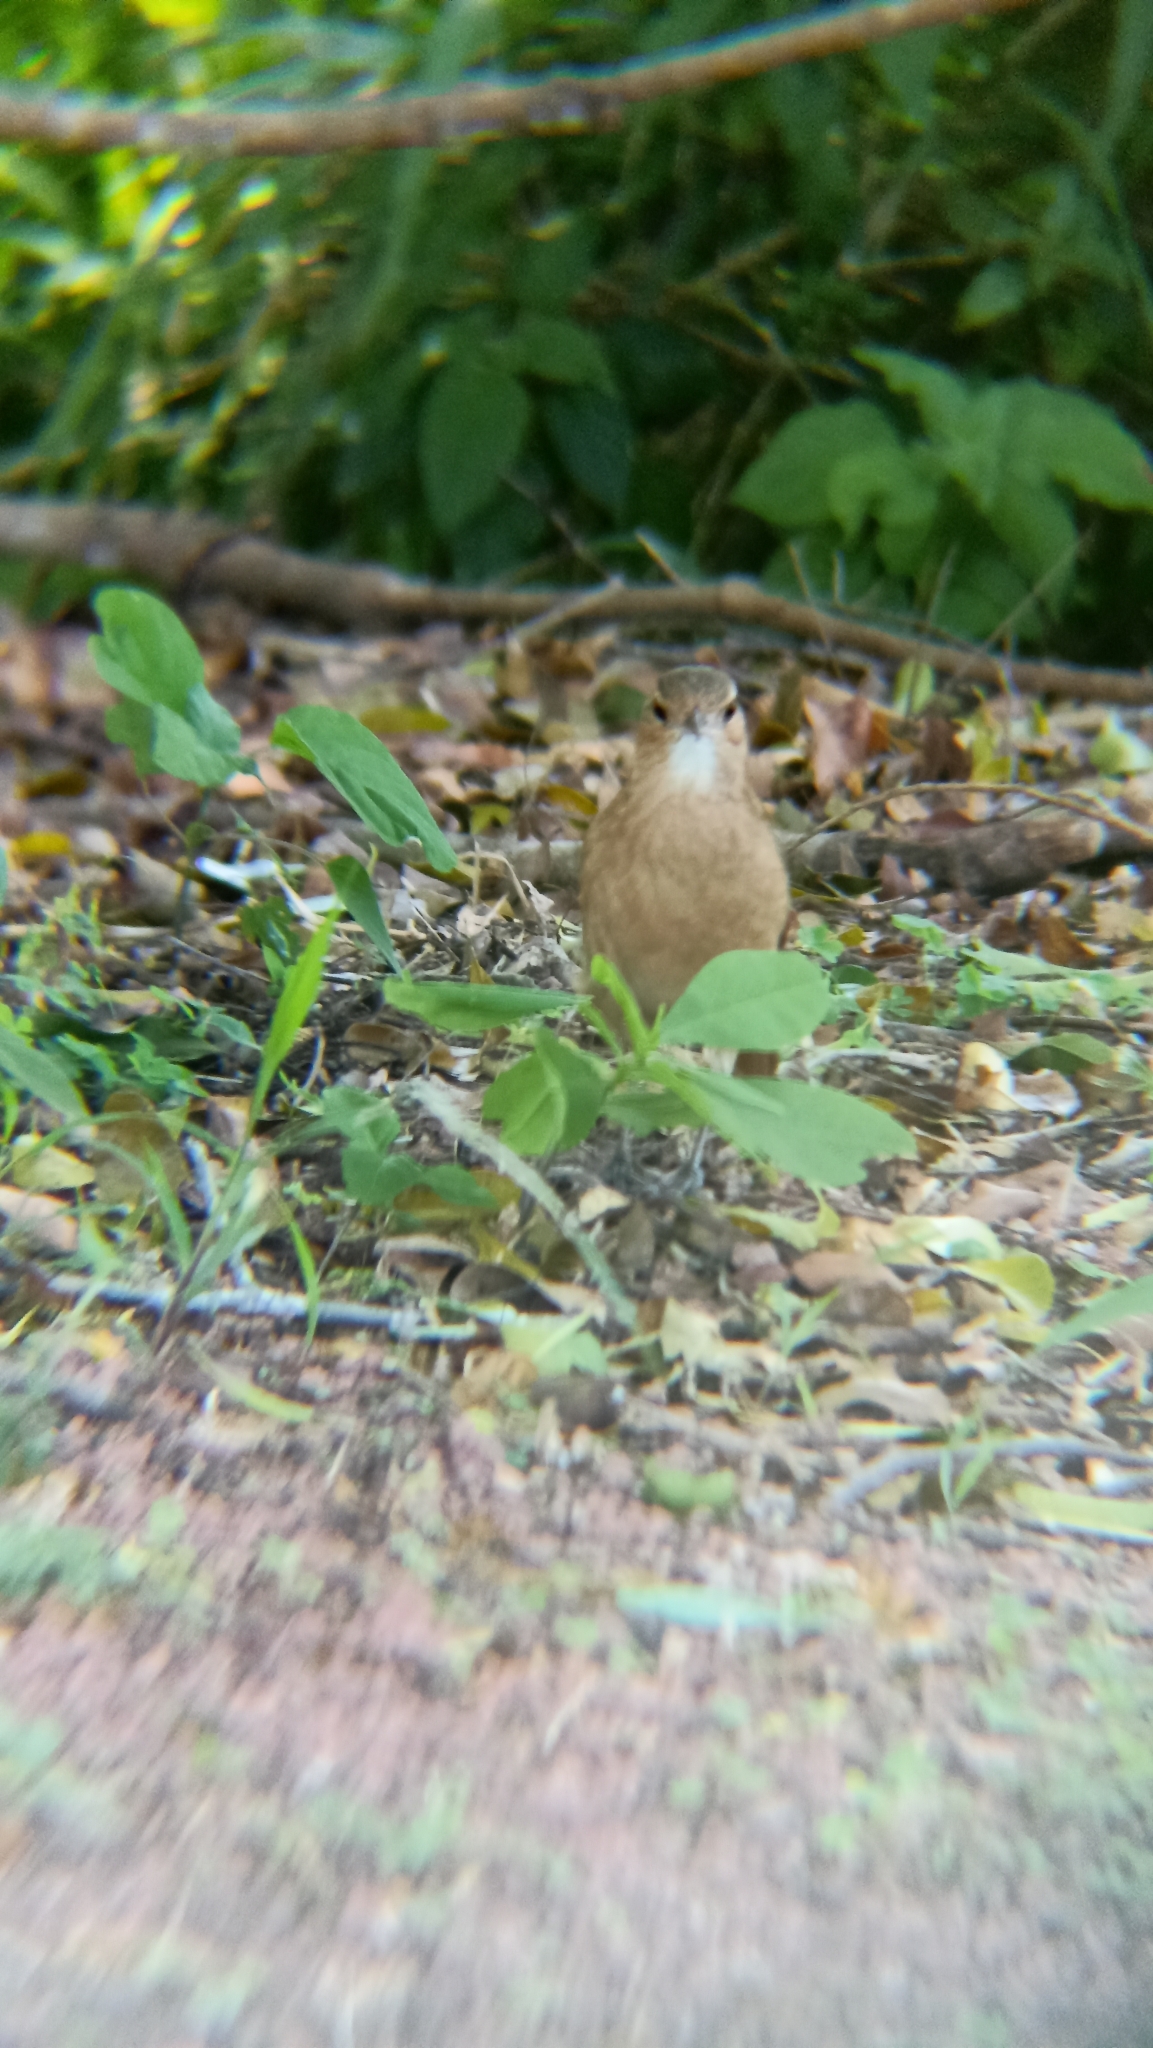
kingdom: Animalia
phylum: Chordata
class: Aves
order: Passeriformes
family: Furnariidae
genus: Furnarius
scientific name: Furnarius rufus
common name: Rufous hornero
